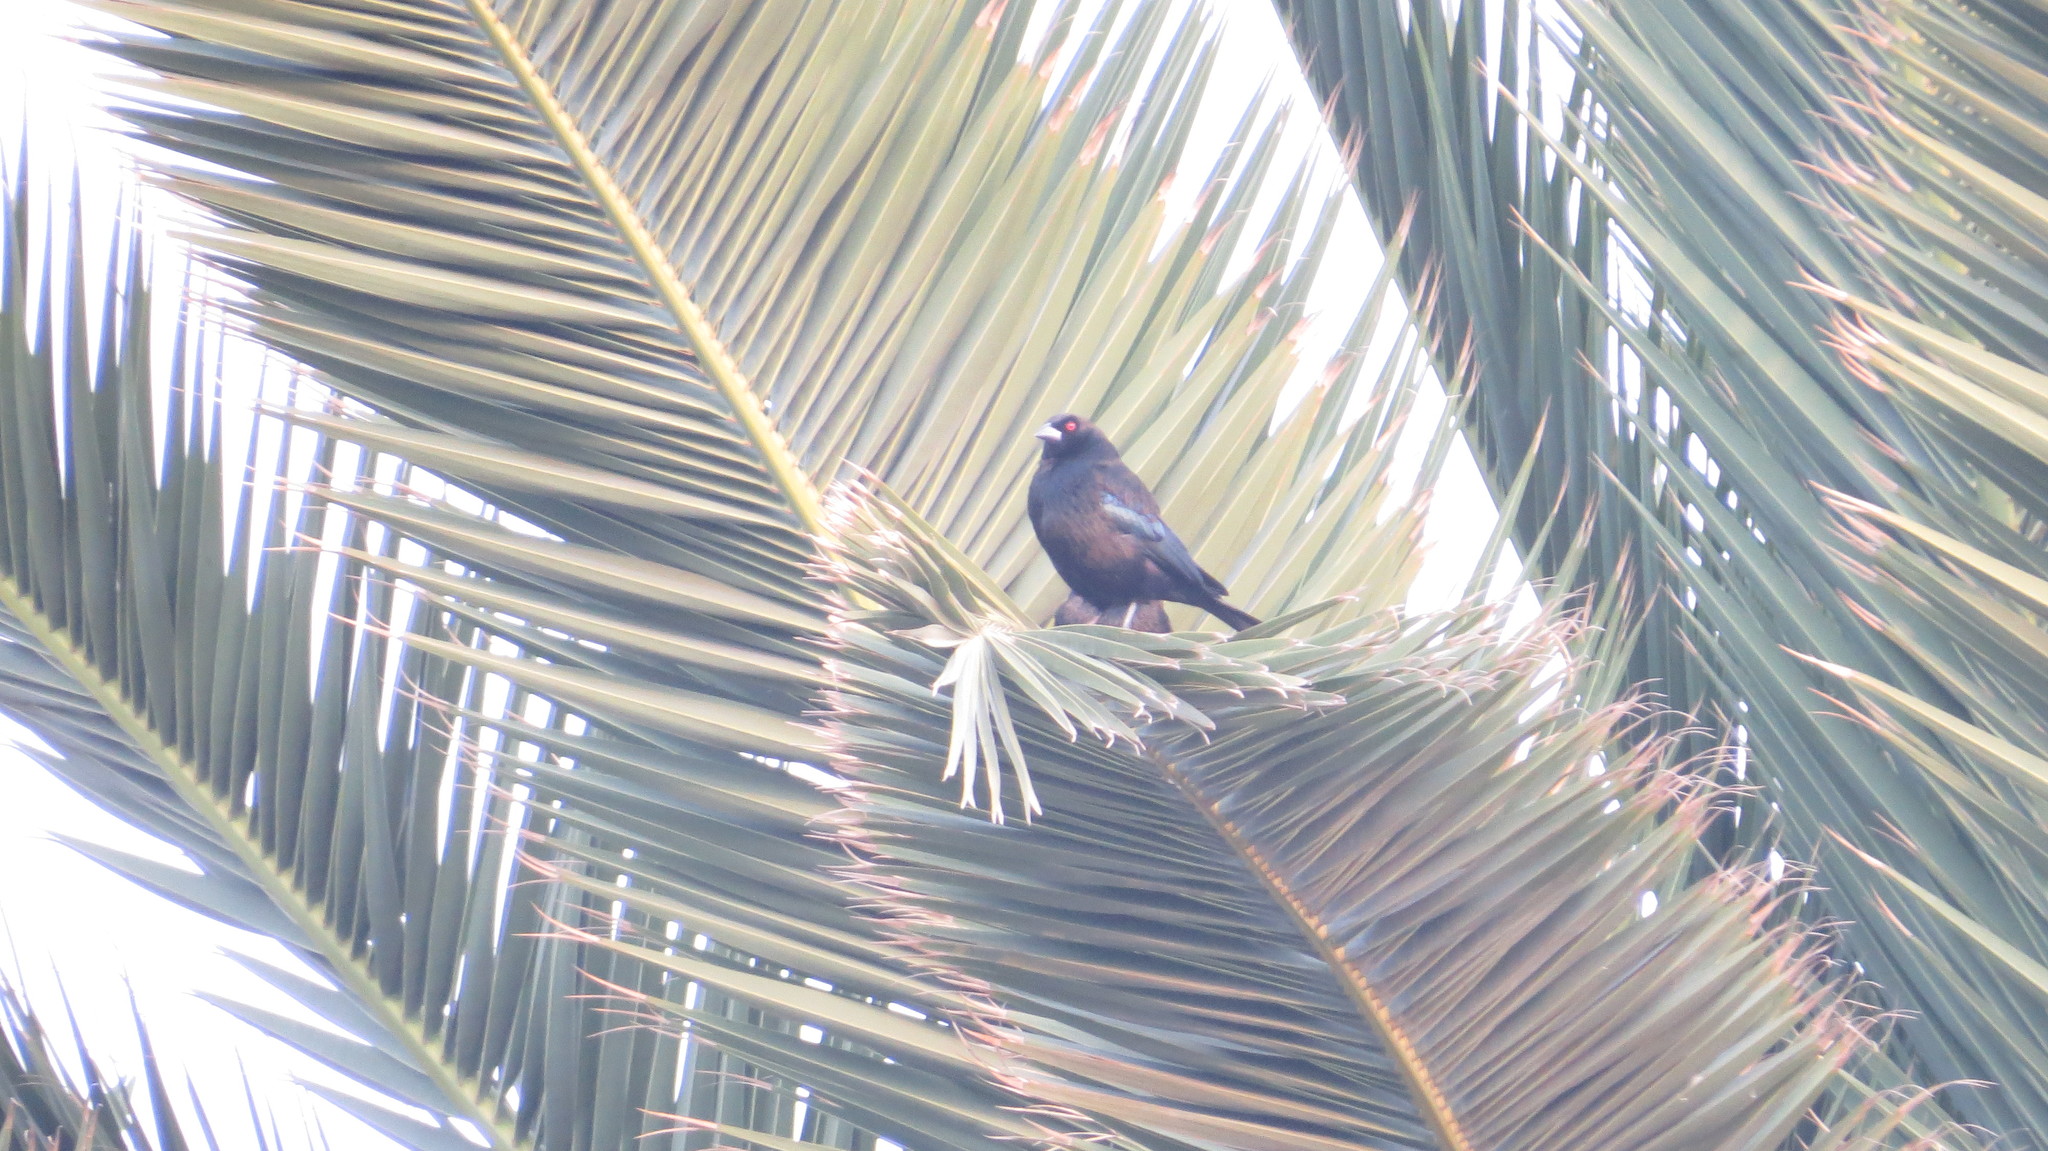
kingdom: Animalia
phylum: Chordata
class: Aves
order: Passeriformes
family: Icteridae
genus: Molothrus
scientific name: Molothrus aeneus
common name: Bronzed cowbird
